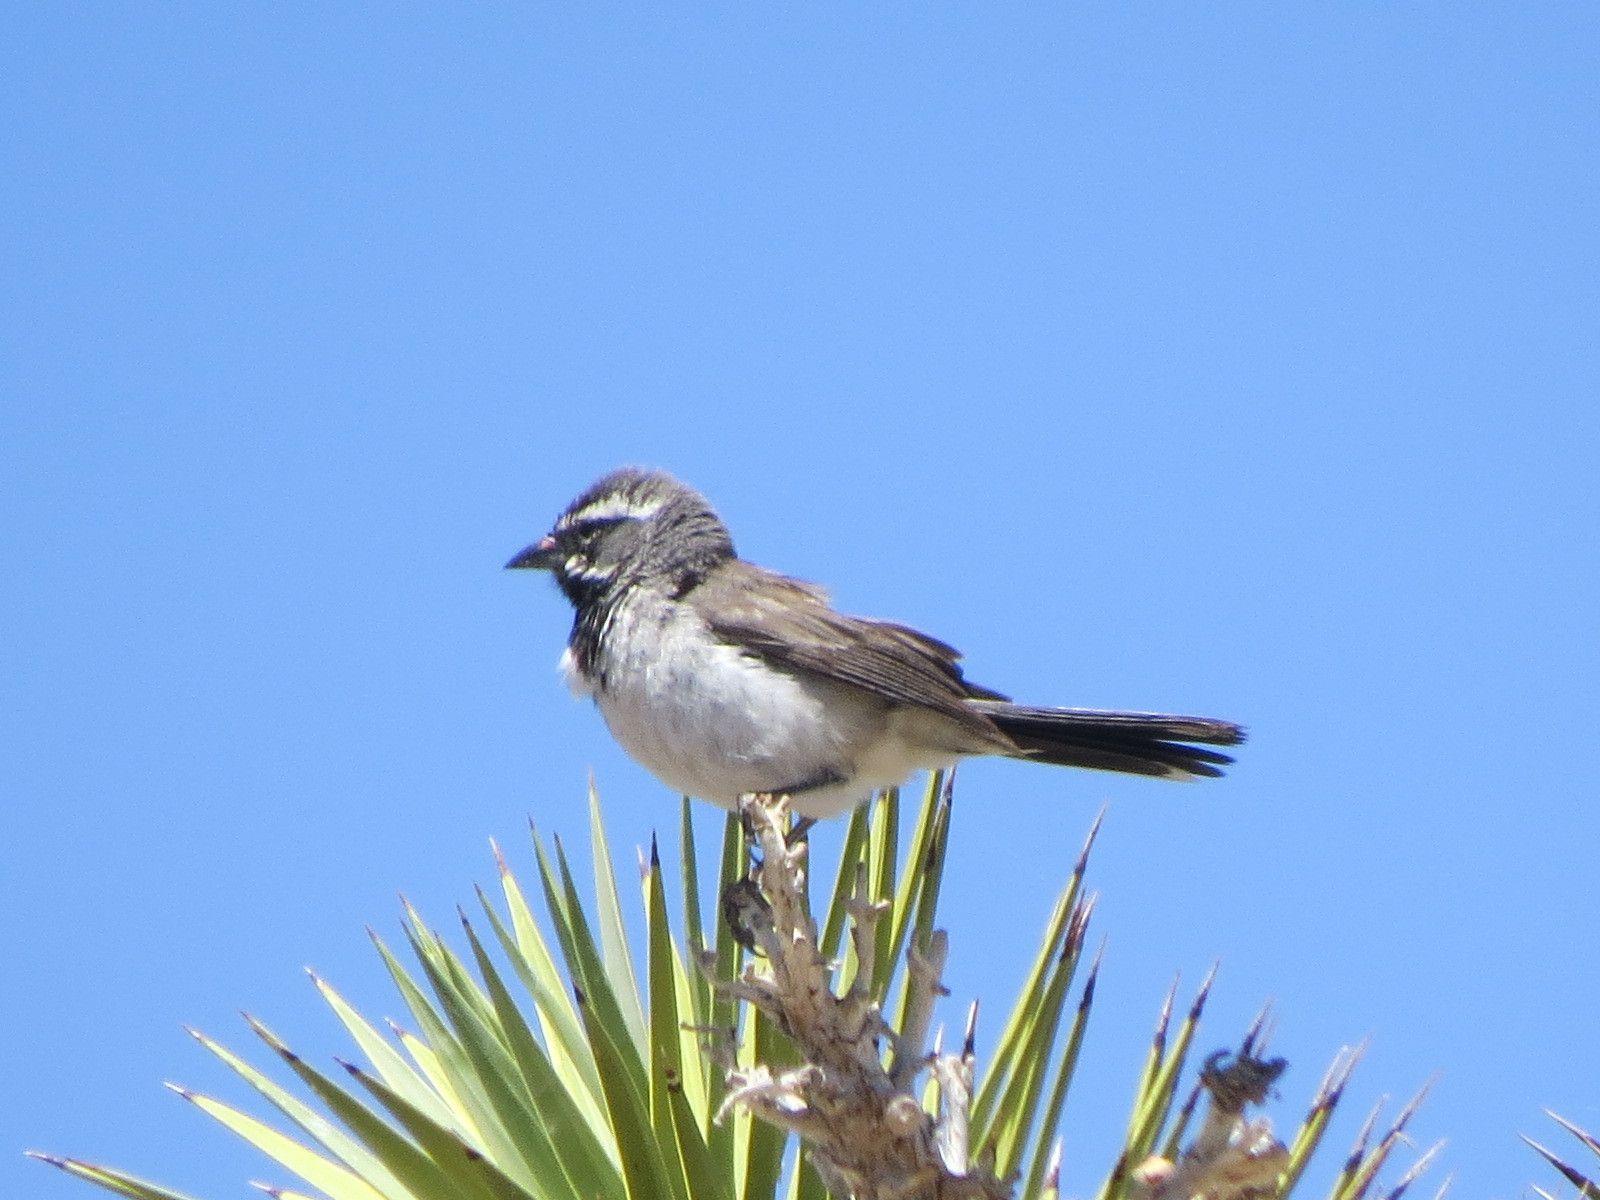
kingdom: Animalia
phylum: Chordata
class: Aves
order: Passeriformes
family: Passerellidae
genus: Amphispiza
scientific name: Amphispiza bilineata
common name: Black-throated sparrow
